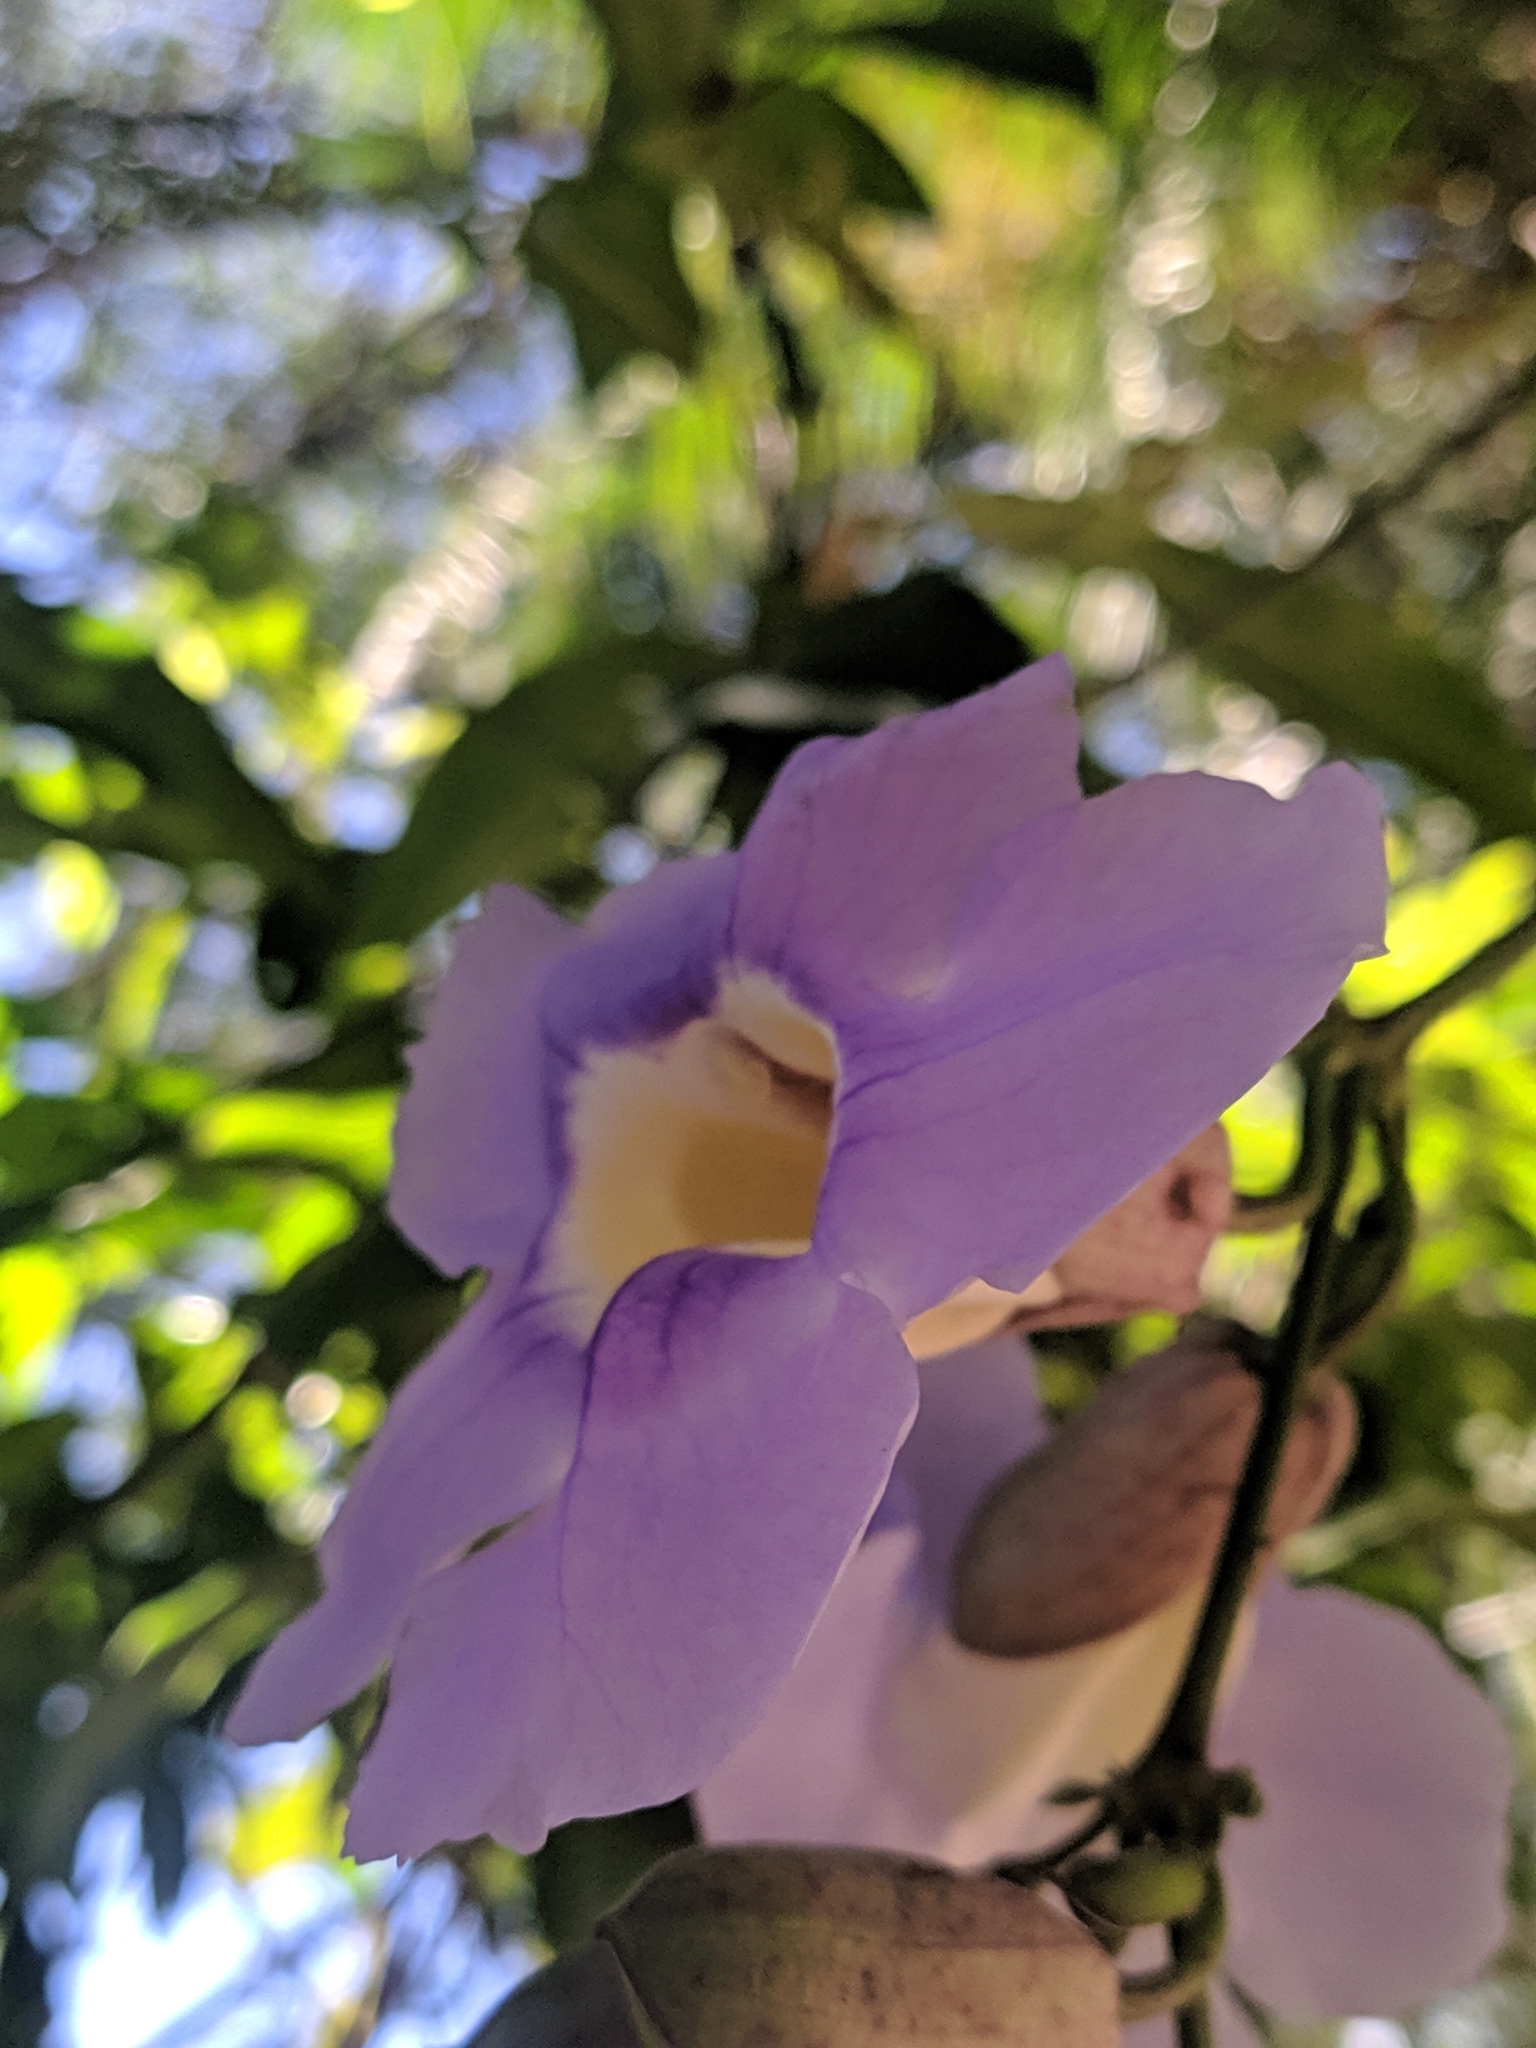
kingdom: Plantae
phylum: Tracheophyta
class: Magnoliopsida
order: Lamiales
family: Acanthaceae
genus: Thunbergia
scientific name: Thunbergia grandiflora
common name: Bengal trumpet
